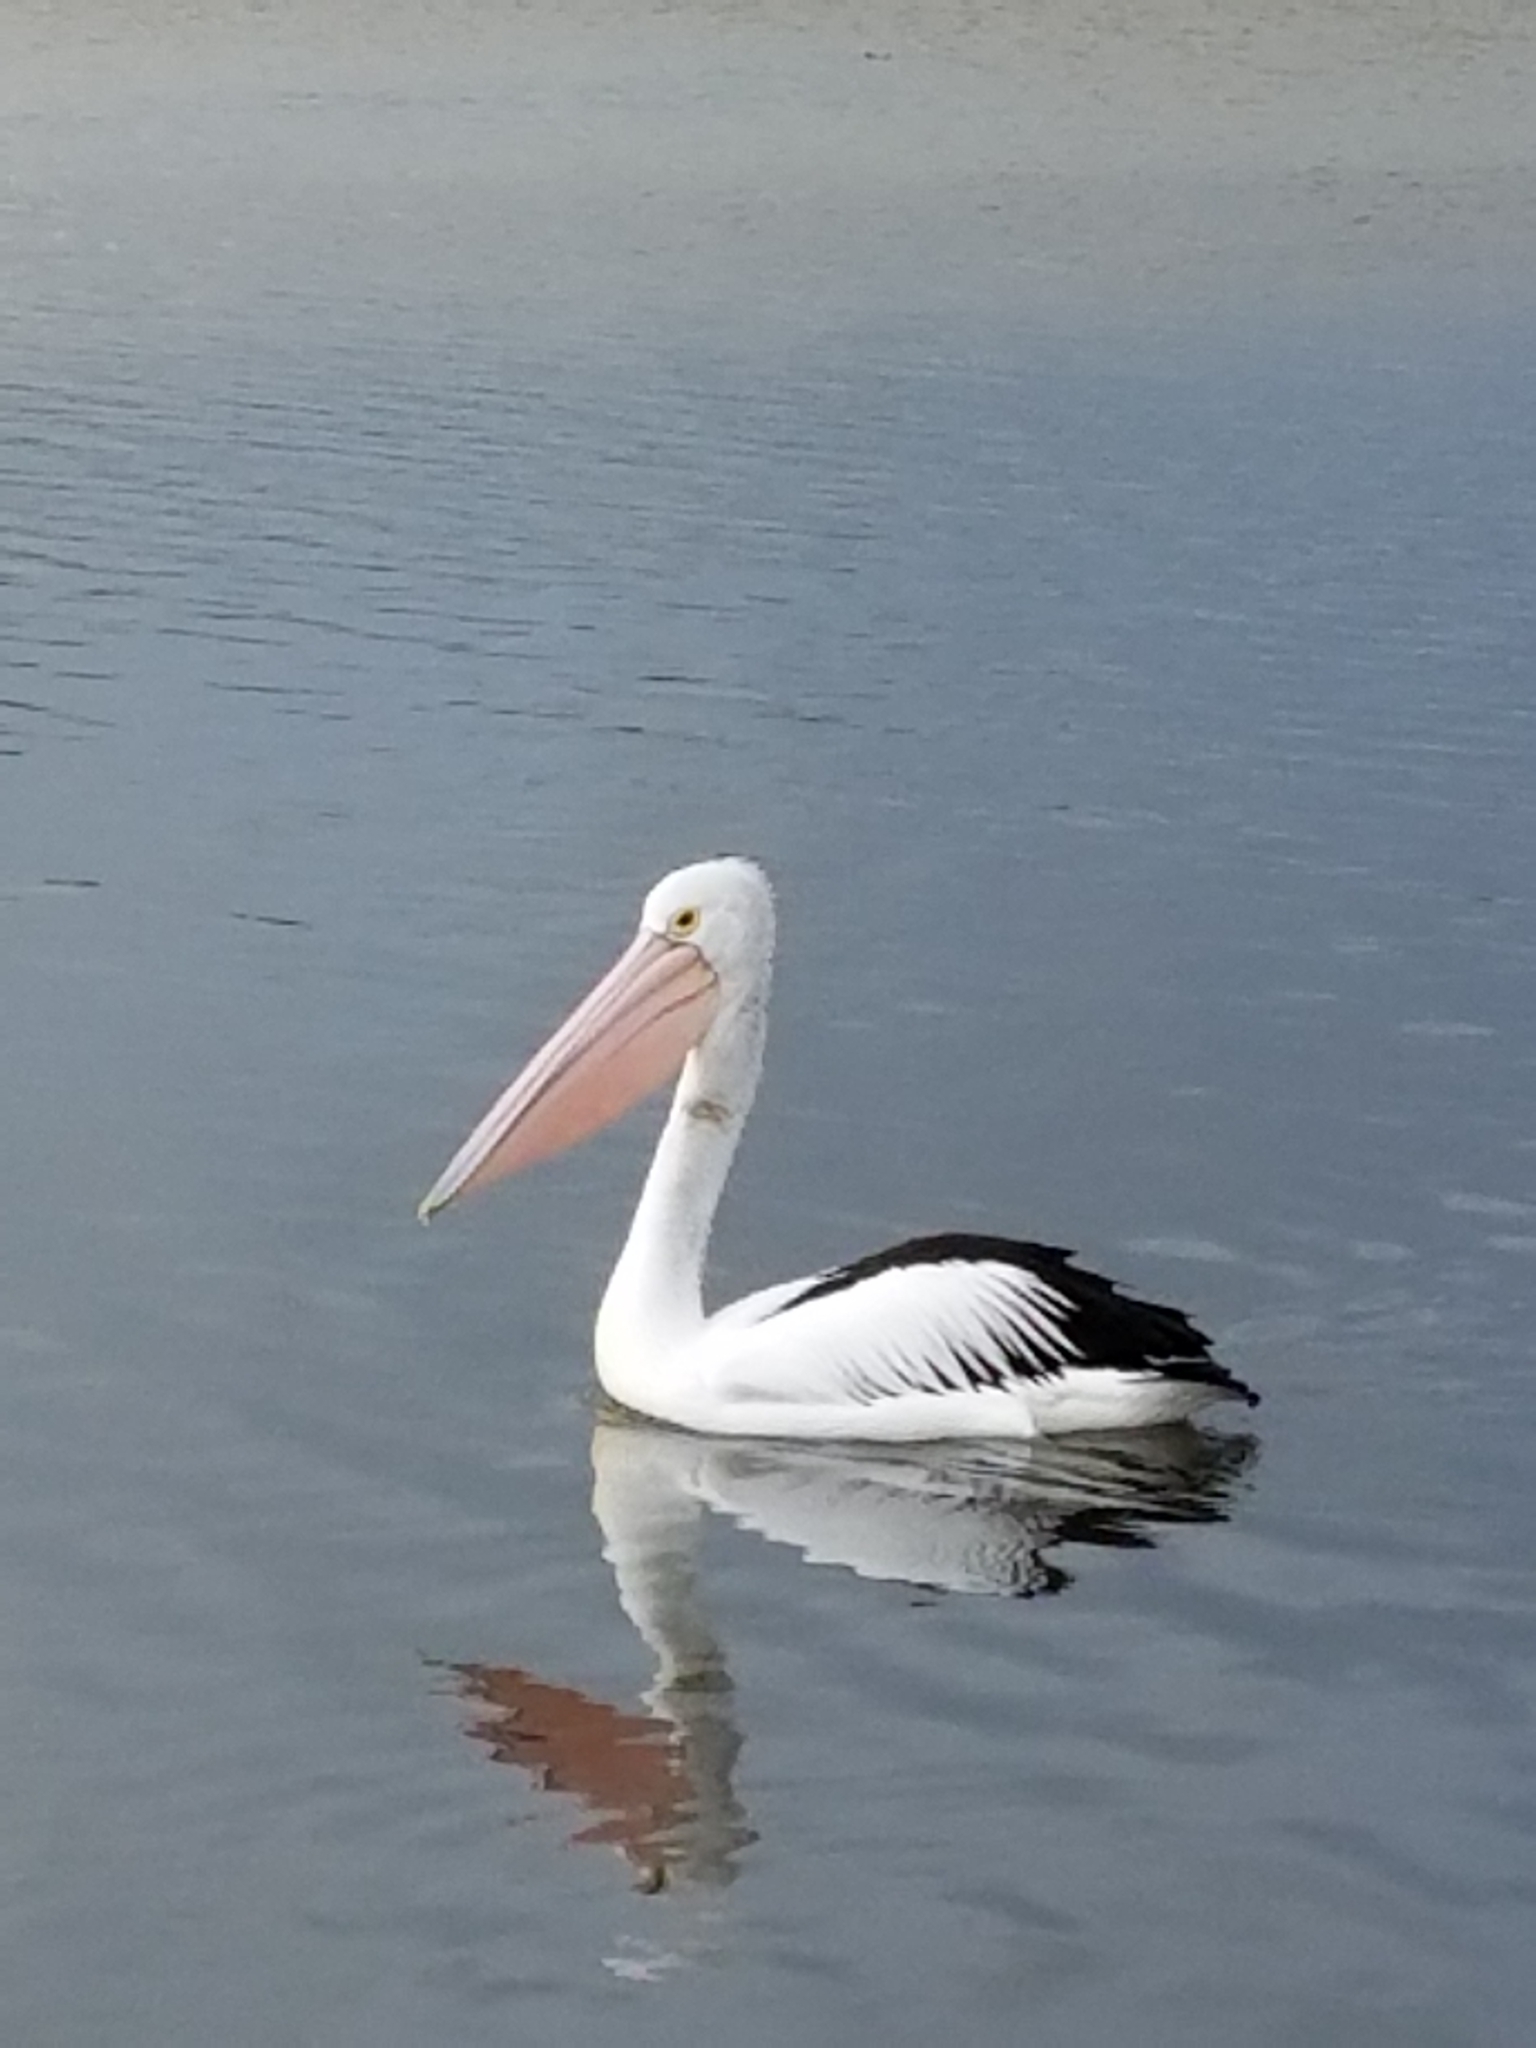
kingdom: Animalia
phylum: Chordata
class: Aves
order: Pelecaniformes
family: Pelecanidae
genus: Pelecanus
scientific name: Pelecanus conspicillatus
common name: Australian pelican
